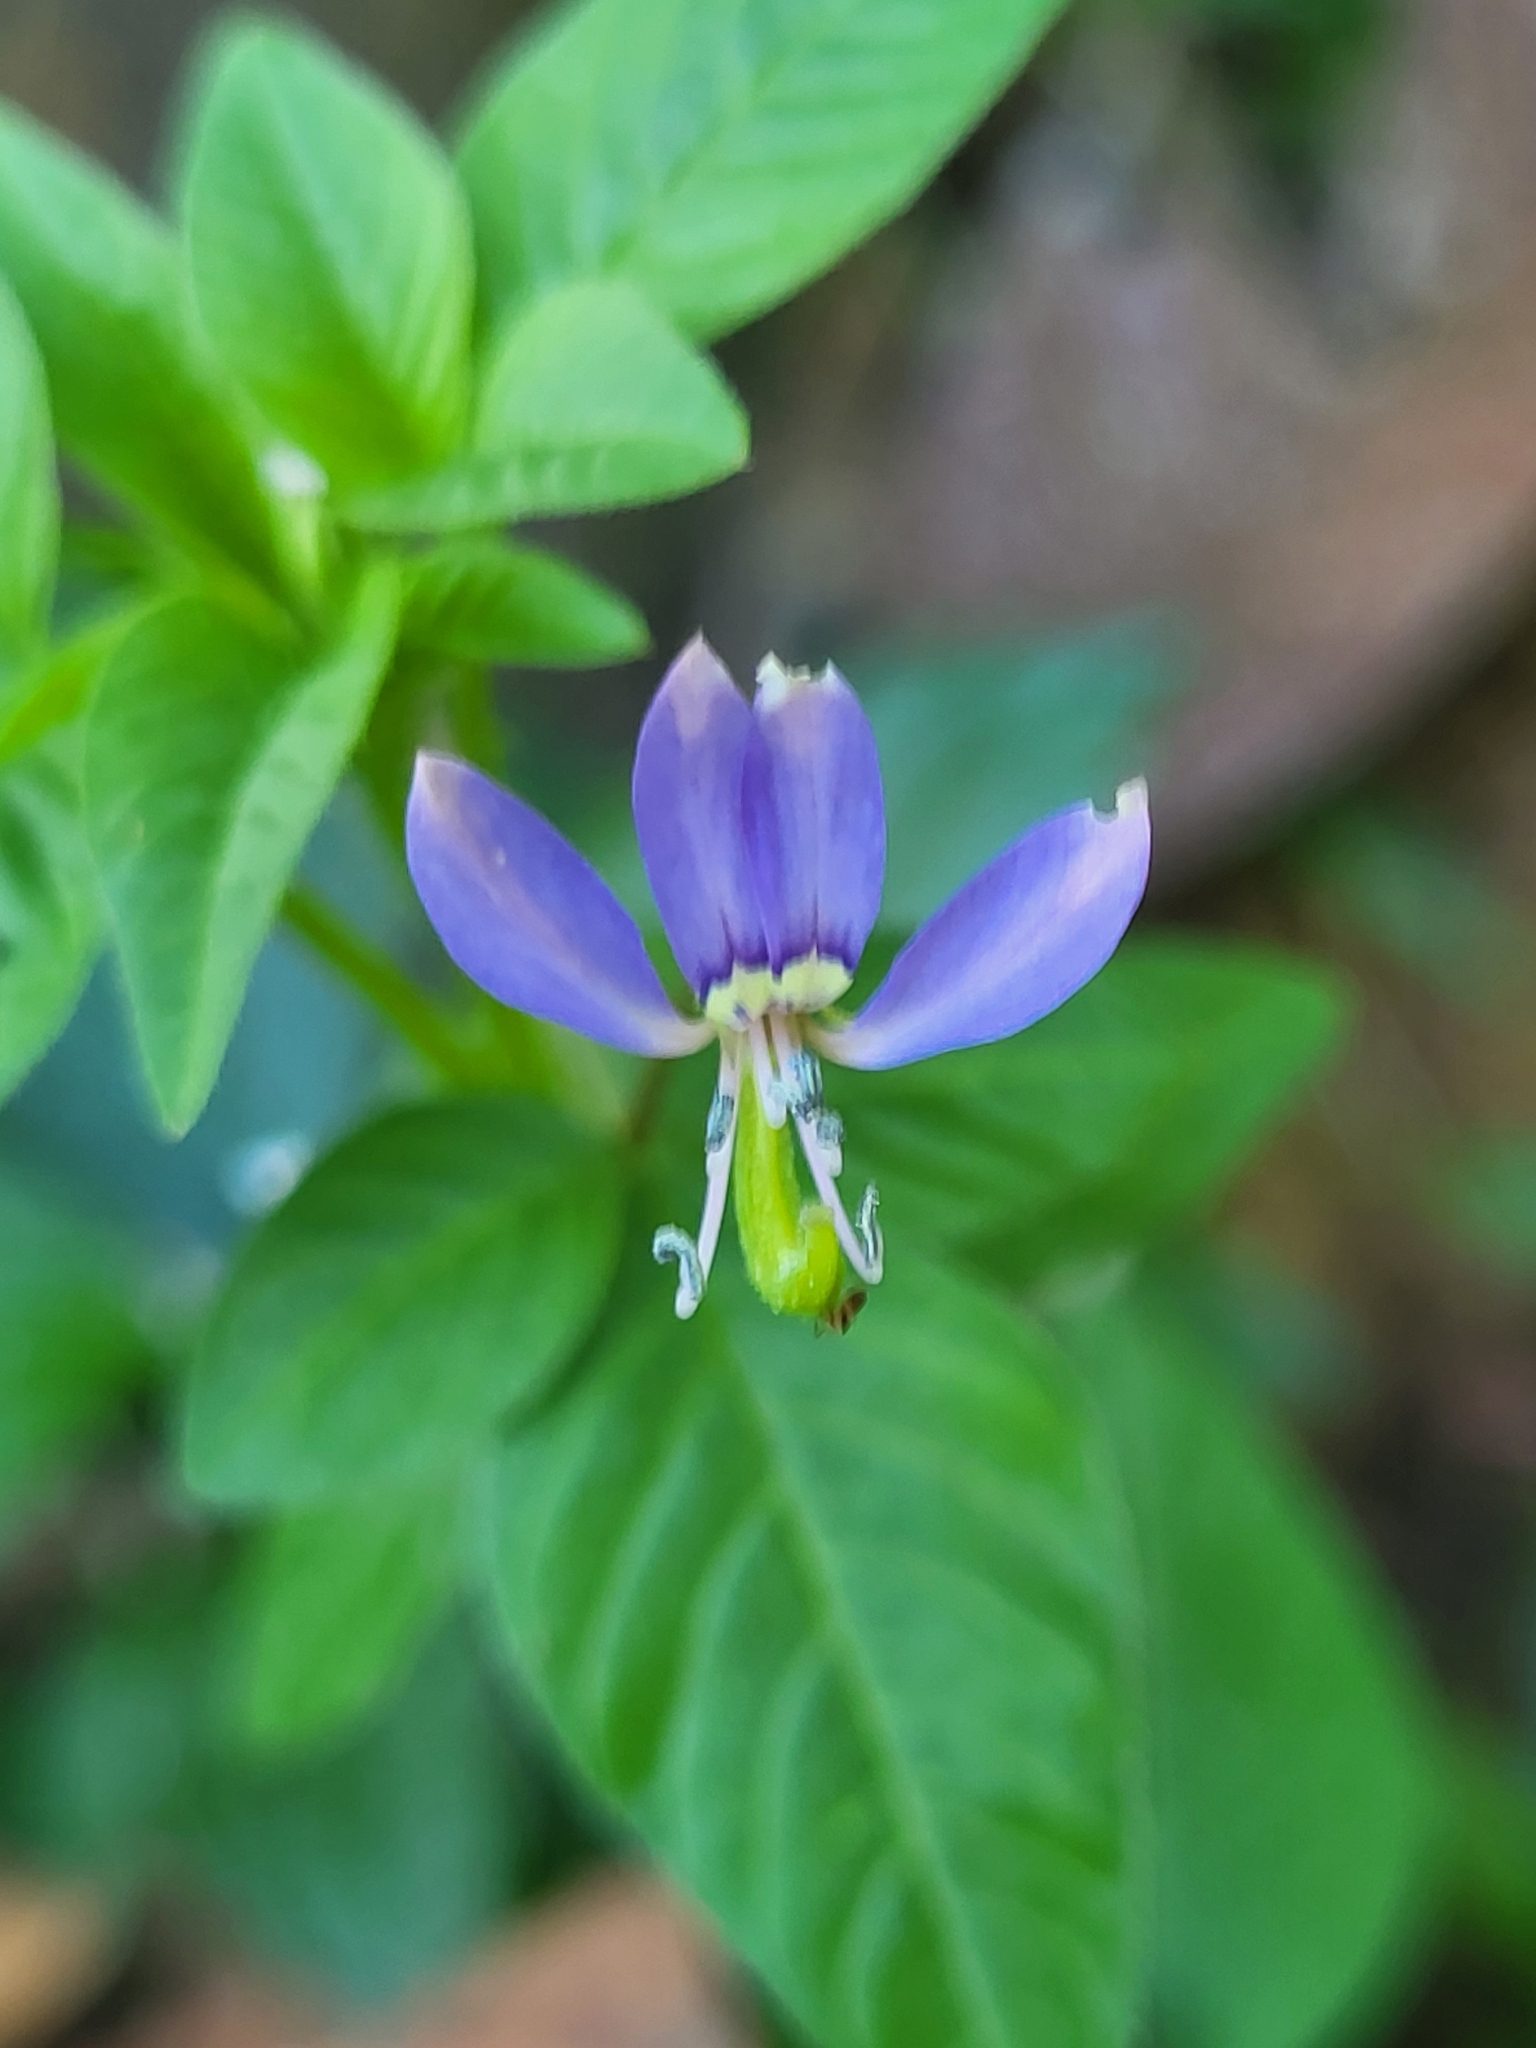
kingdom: Plantae
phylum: Tracheophyta
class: Magnoliopsida
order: Brassicales
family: Cleomaceae
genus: Sieruela
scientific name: Sieruela rutidosperma
